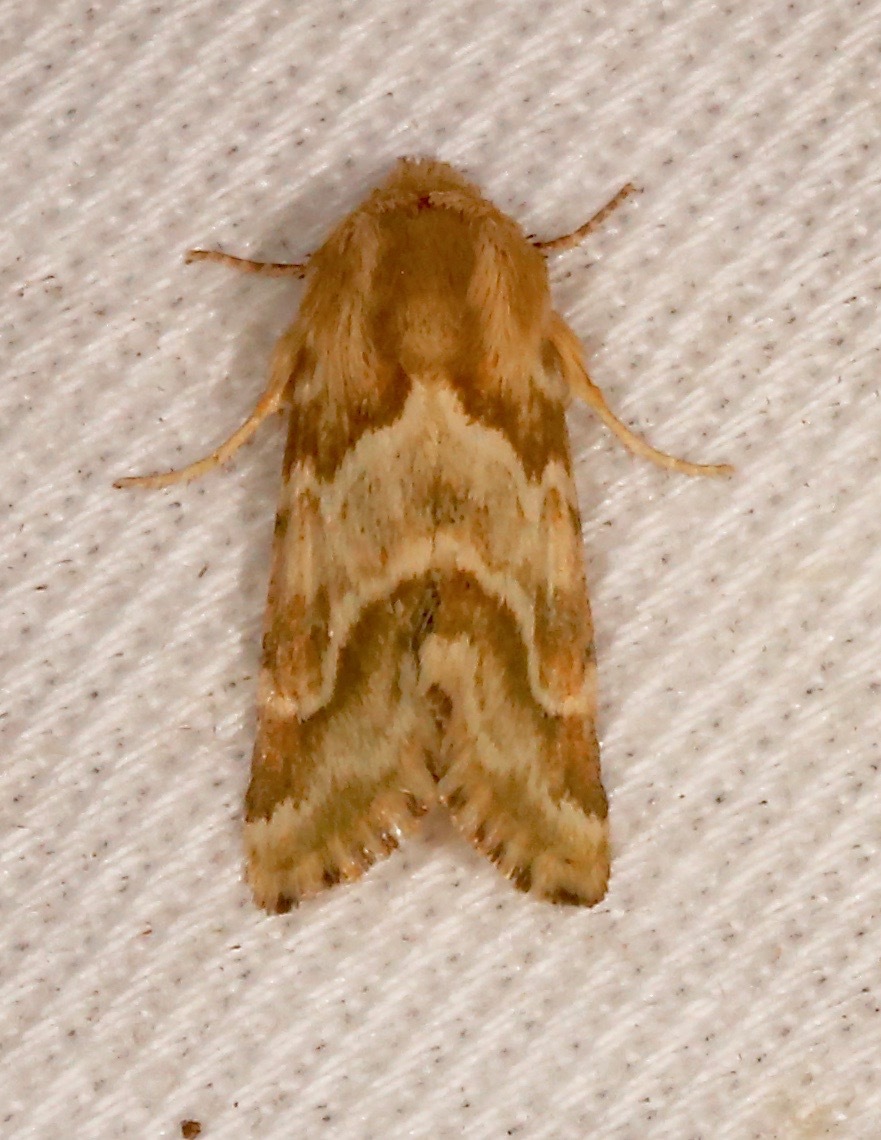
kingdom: Animalia
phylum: Arthropoda
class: Insecta
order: Lepidoptera
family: Noctuidae
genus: Schinia
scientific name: Schinia errans
